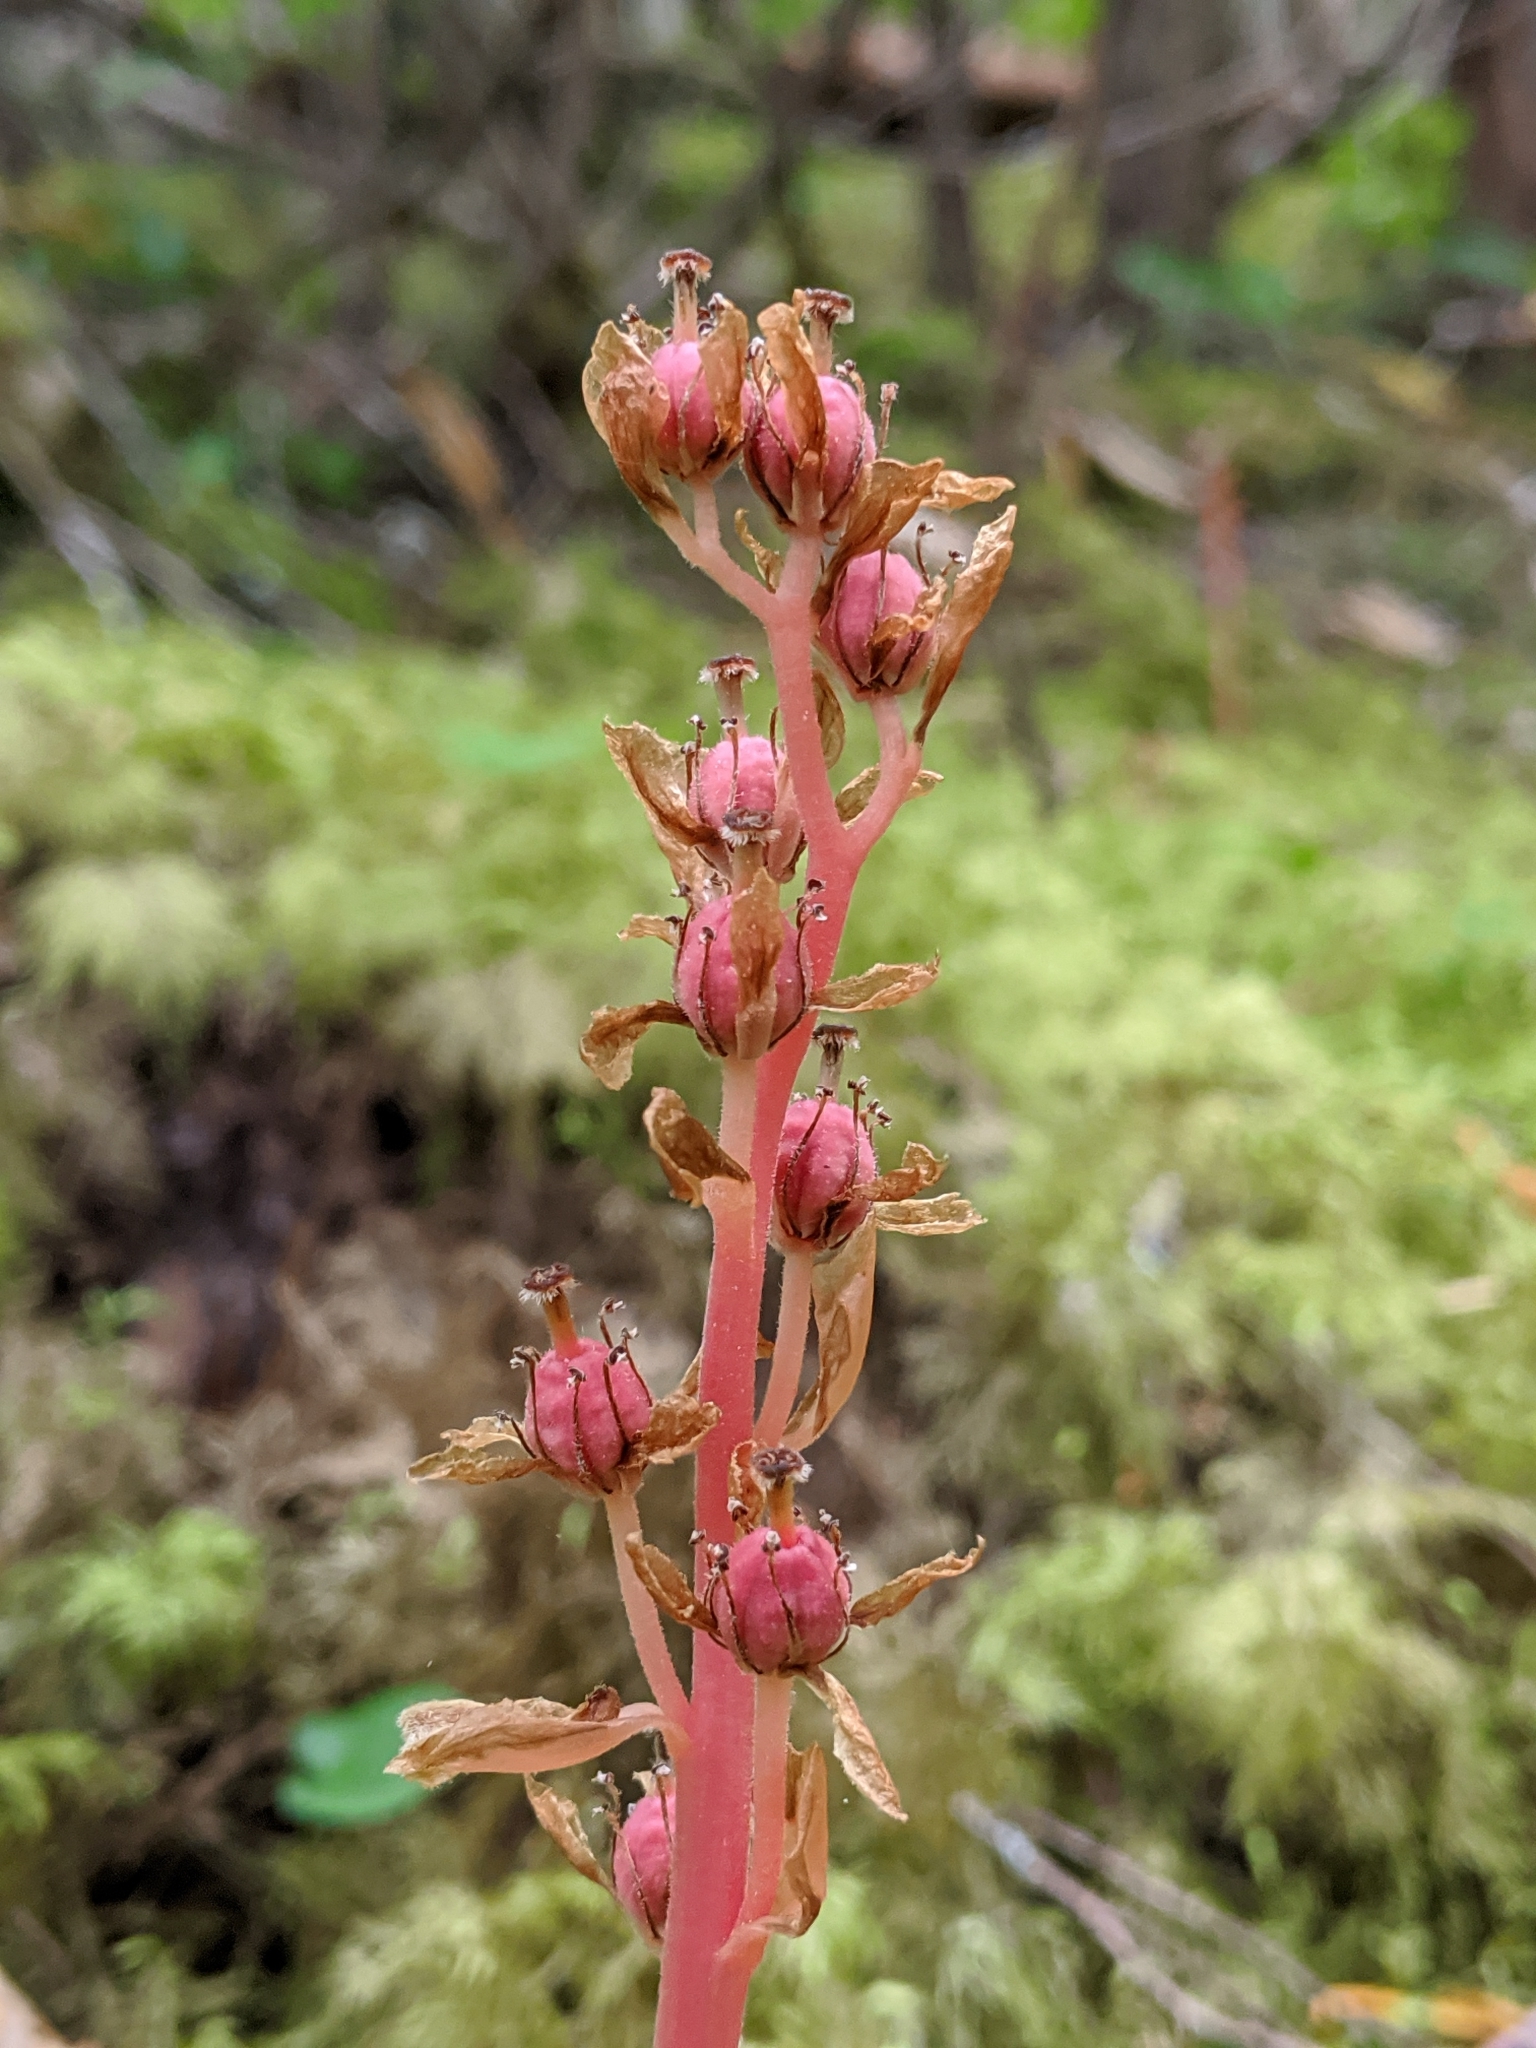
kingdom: Plantae
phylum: Tracheophyta
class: Magnoliopsida
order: Ericales
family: Ericaceae
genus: Hypopitys
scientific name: Hypopitys monotropa
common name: Yellow bird's-nest
